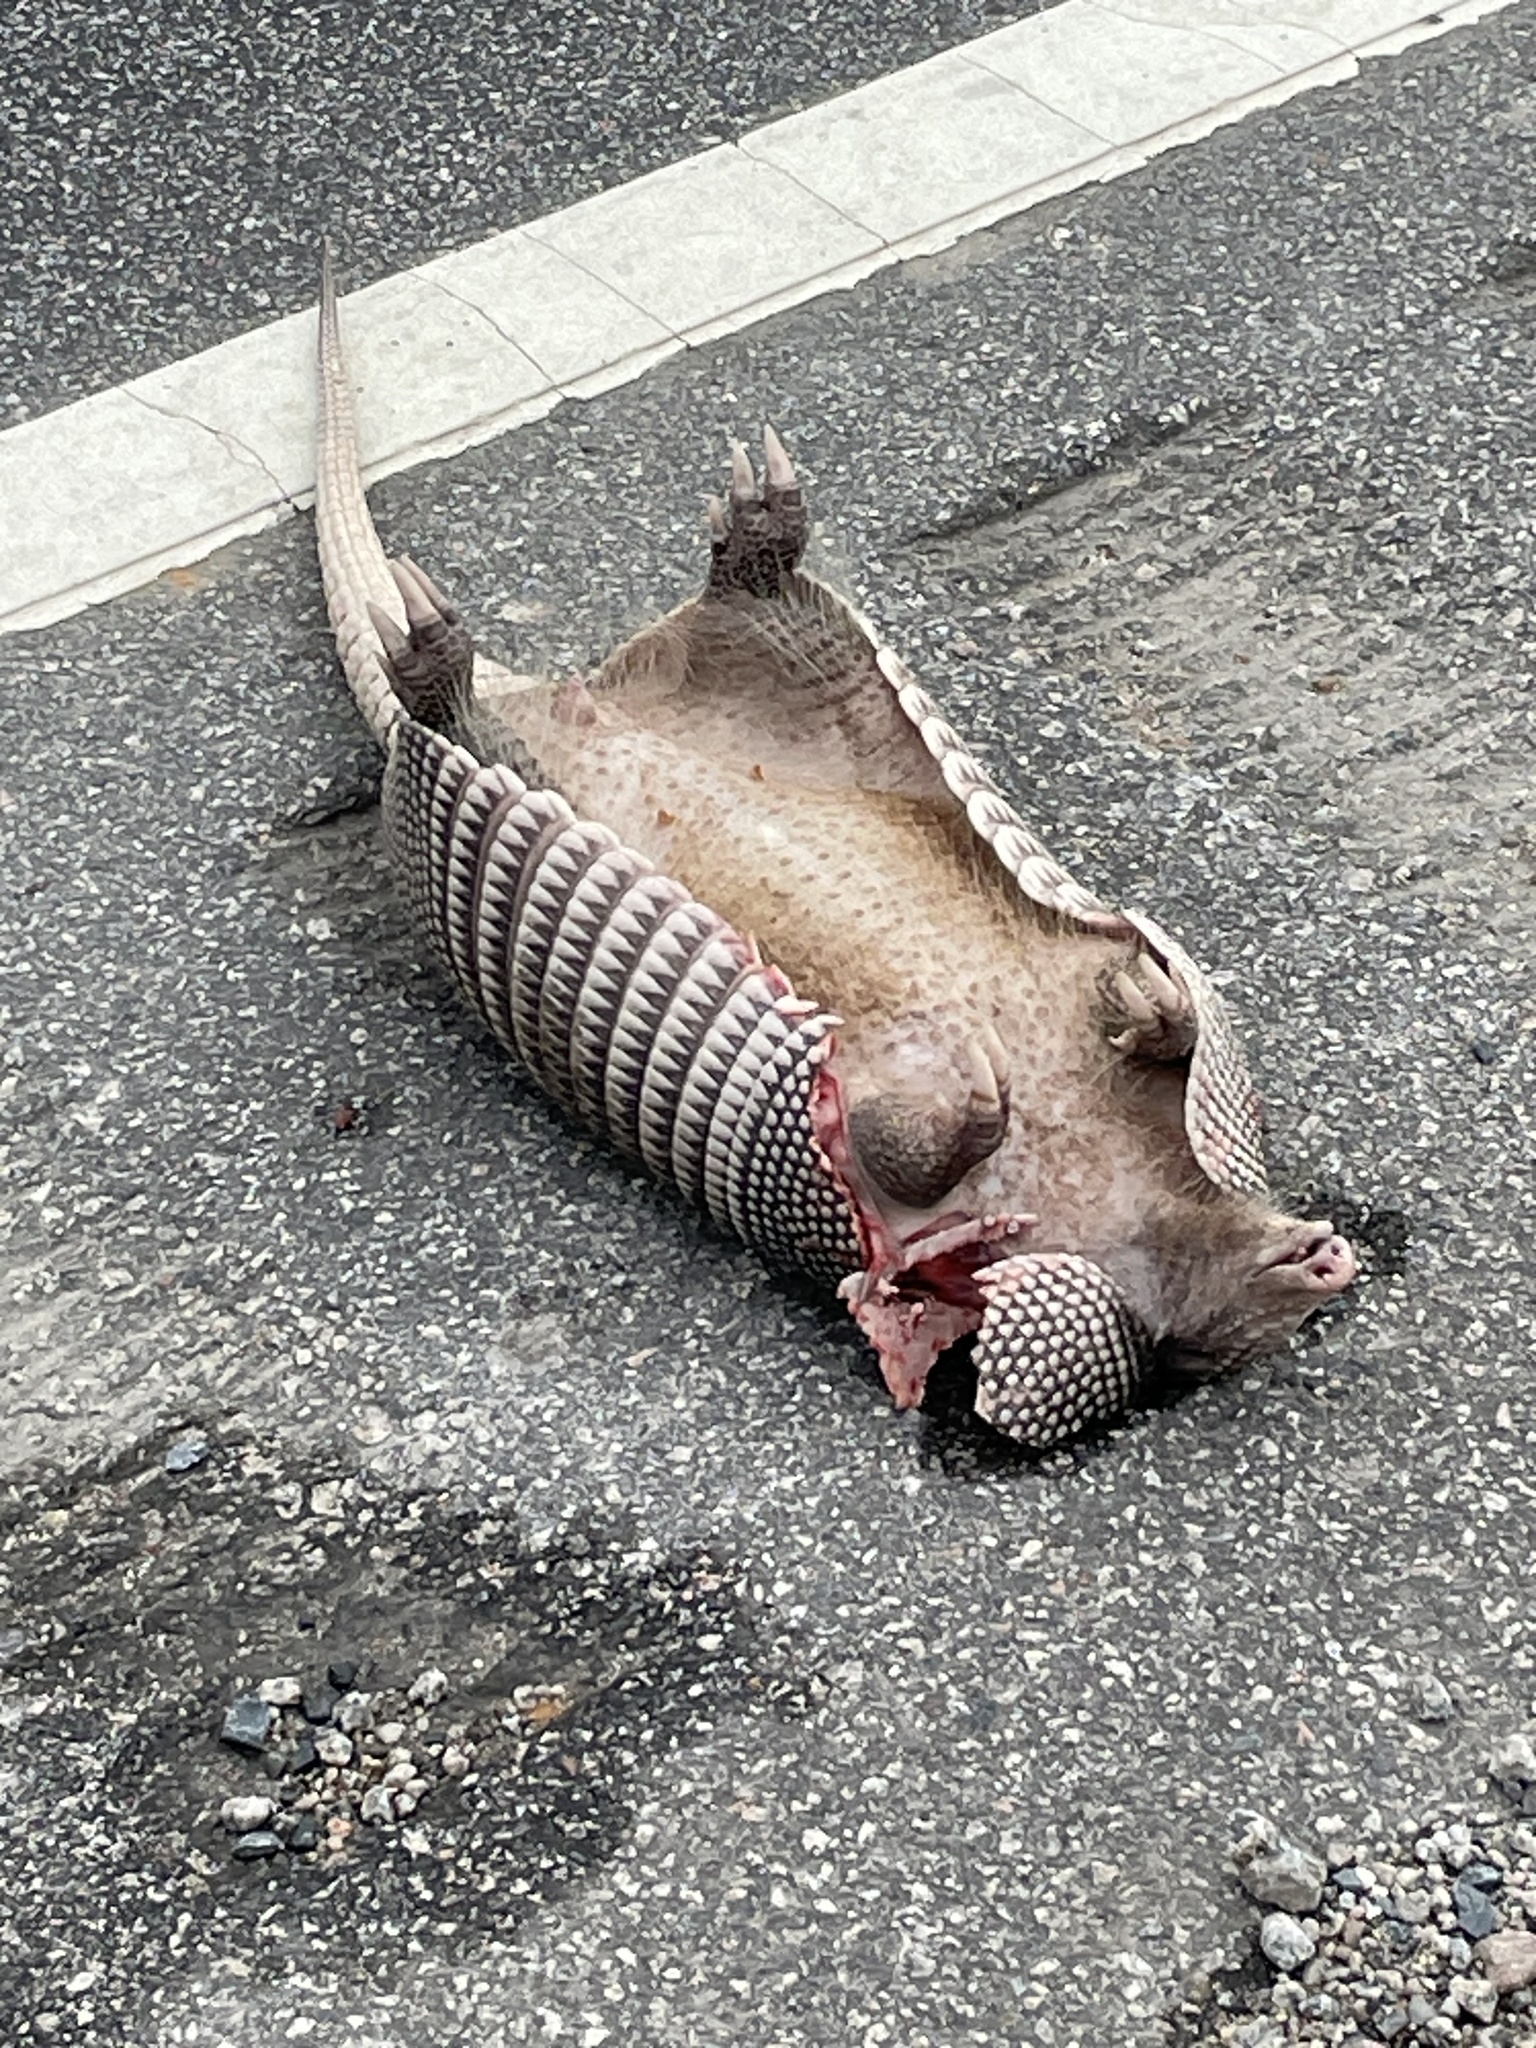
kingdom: Animalia
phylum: Chordata
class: Mammalia
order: Cingulata
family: Dasypodidae
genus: Dasypus
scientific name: Dasypus novemcinctus
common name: Nine-banded armadillo
